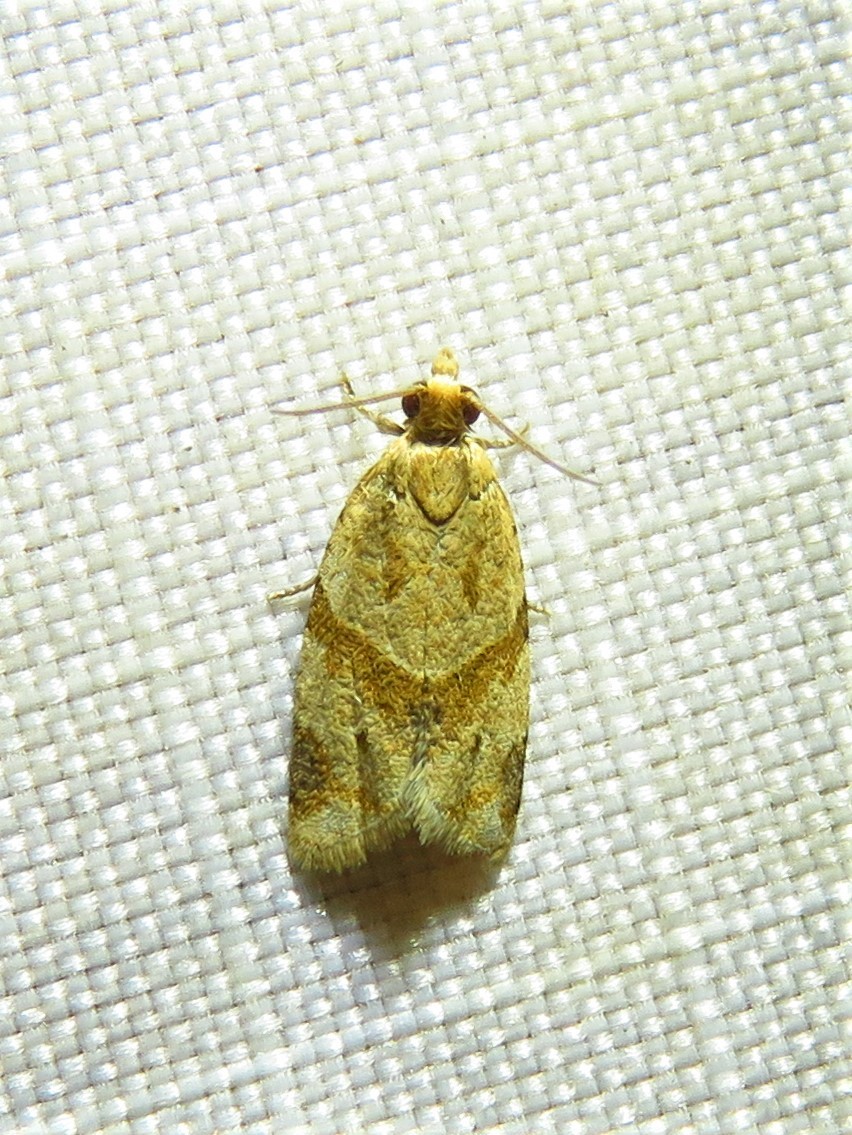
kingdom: Animalia
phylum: Arthropoda
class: Insecta
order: Lepidoptera
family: Tortricidae
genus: Clepsis
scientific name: Clepsis peritana
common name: Garden tortrix
